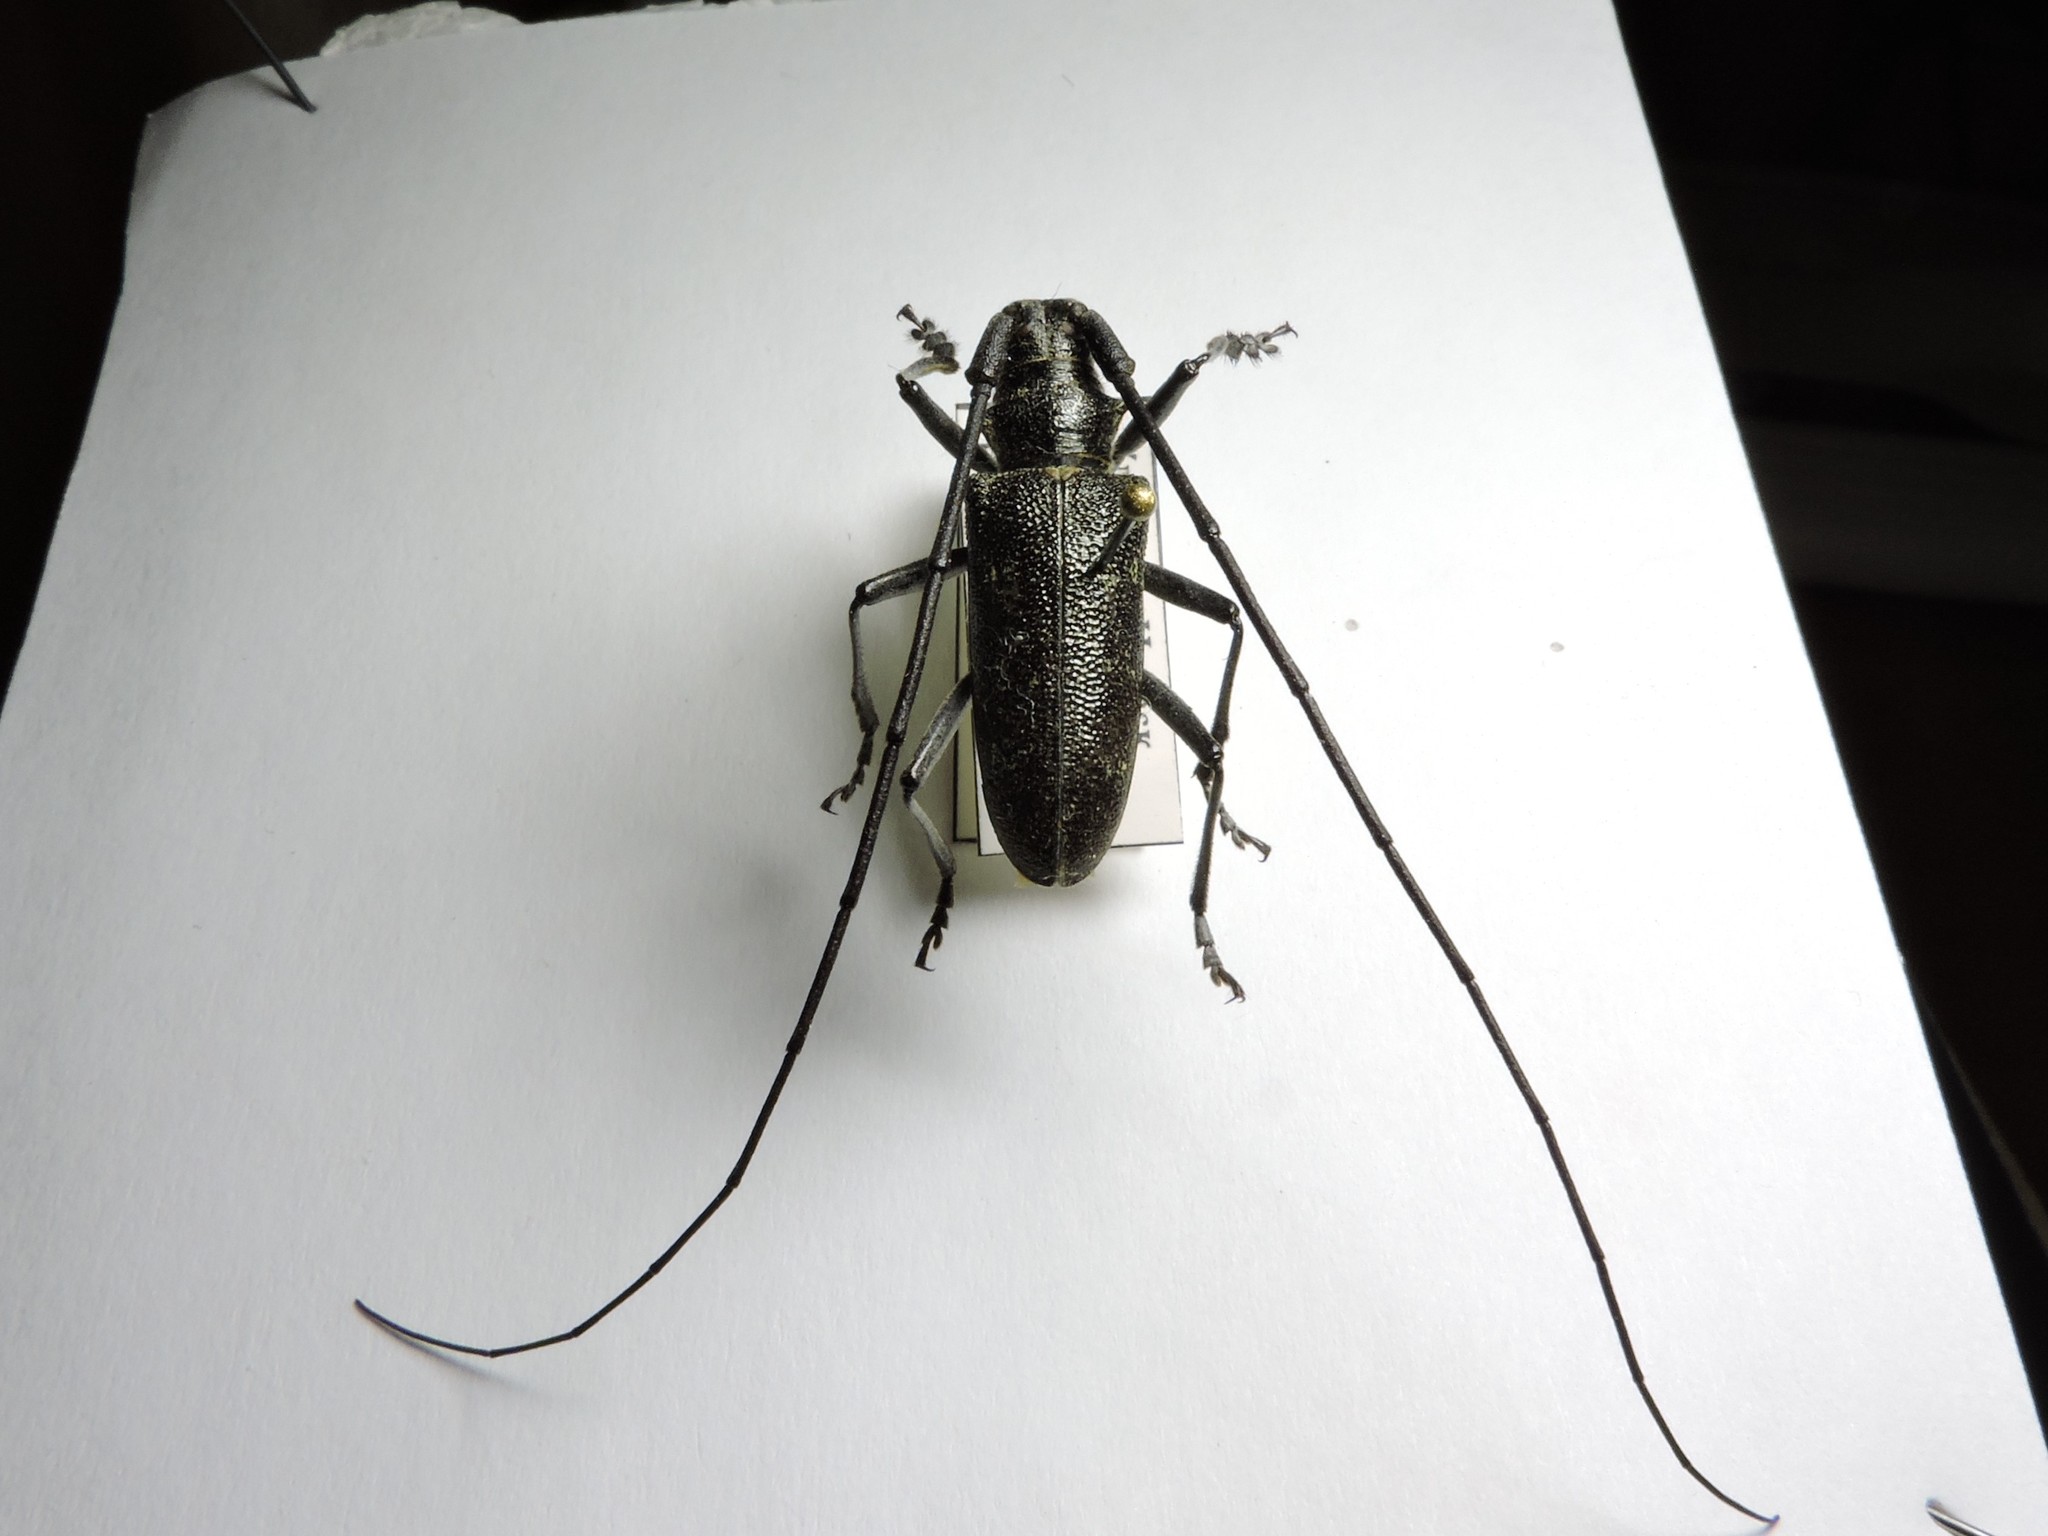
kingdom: Animalia
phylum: Arthropoda
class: Insecta
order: Coleoptera
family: Cerambycidae
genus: Monochamus
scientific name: Monochamus sutor
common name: Pine sawyer
